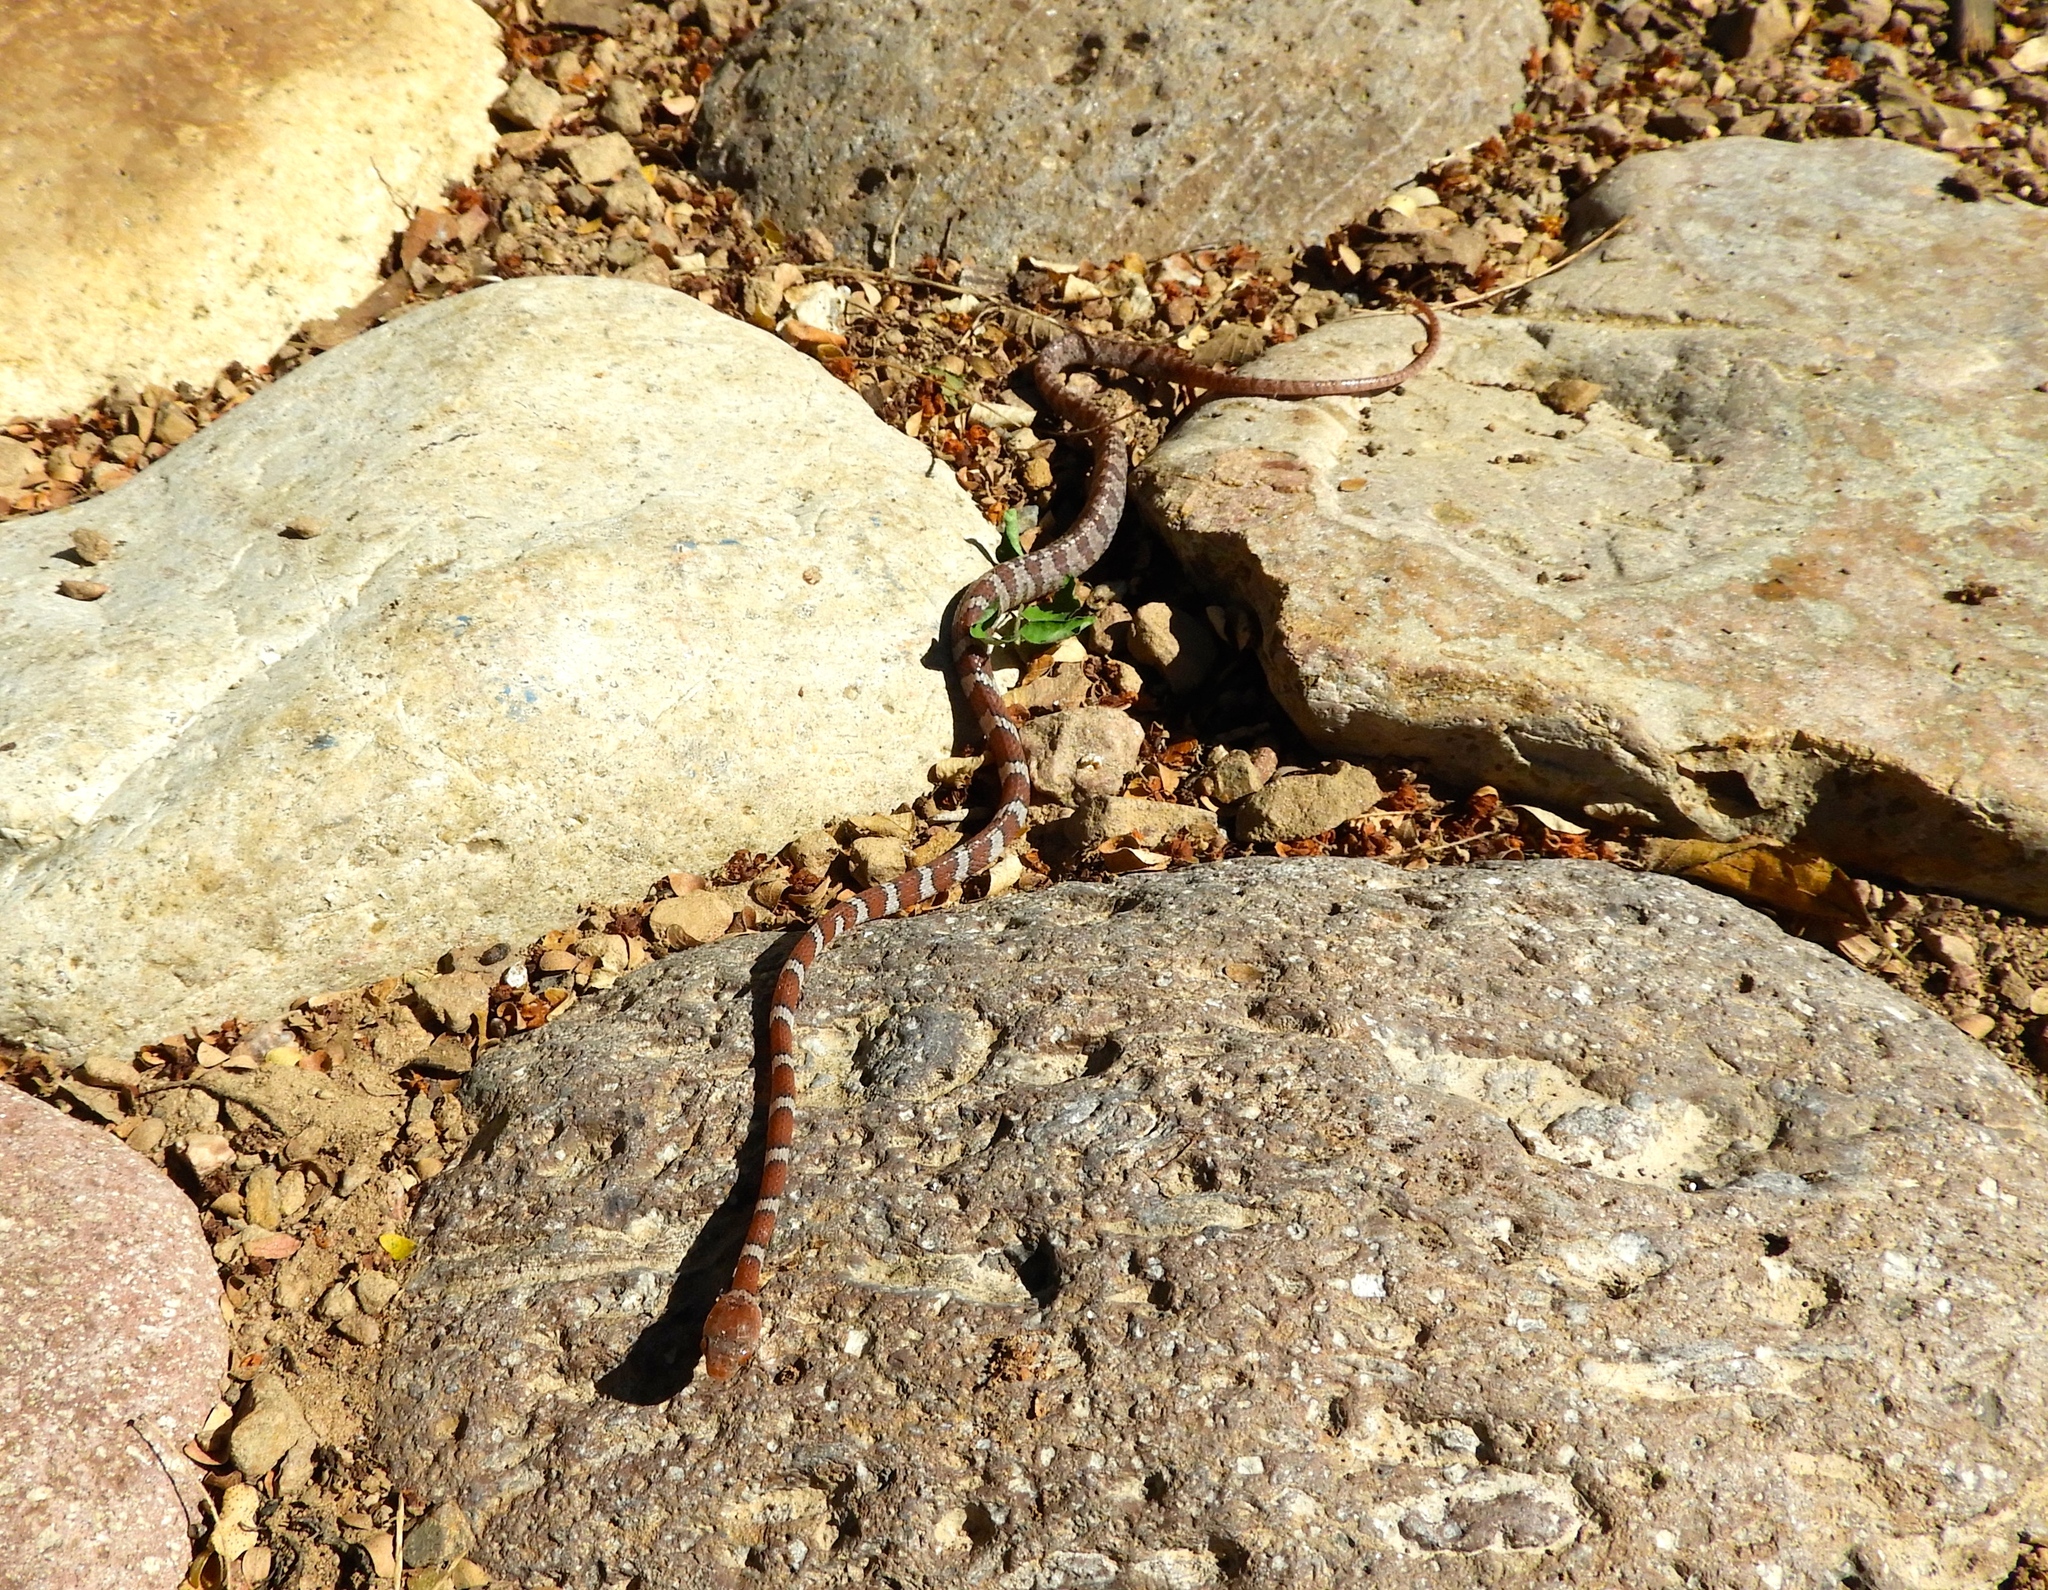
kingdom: Animalia
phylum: Chordata
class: Squamata
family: Colubridae
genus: Imantodes
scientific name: Imantodes gemmistratus
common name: Central american tree snake
